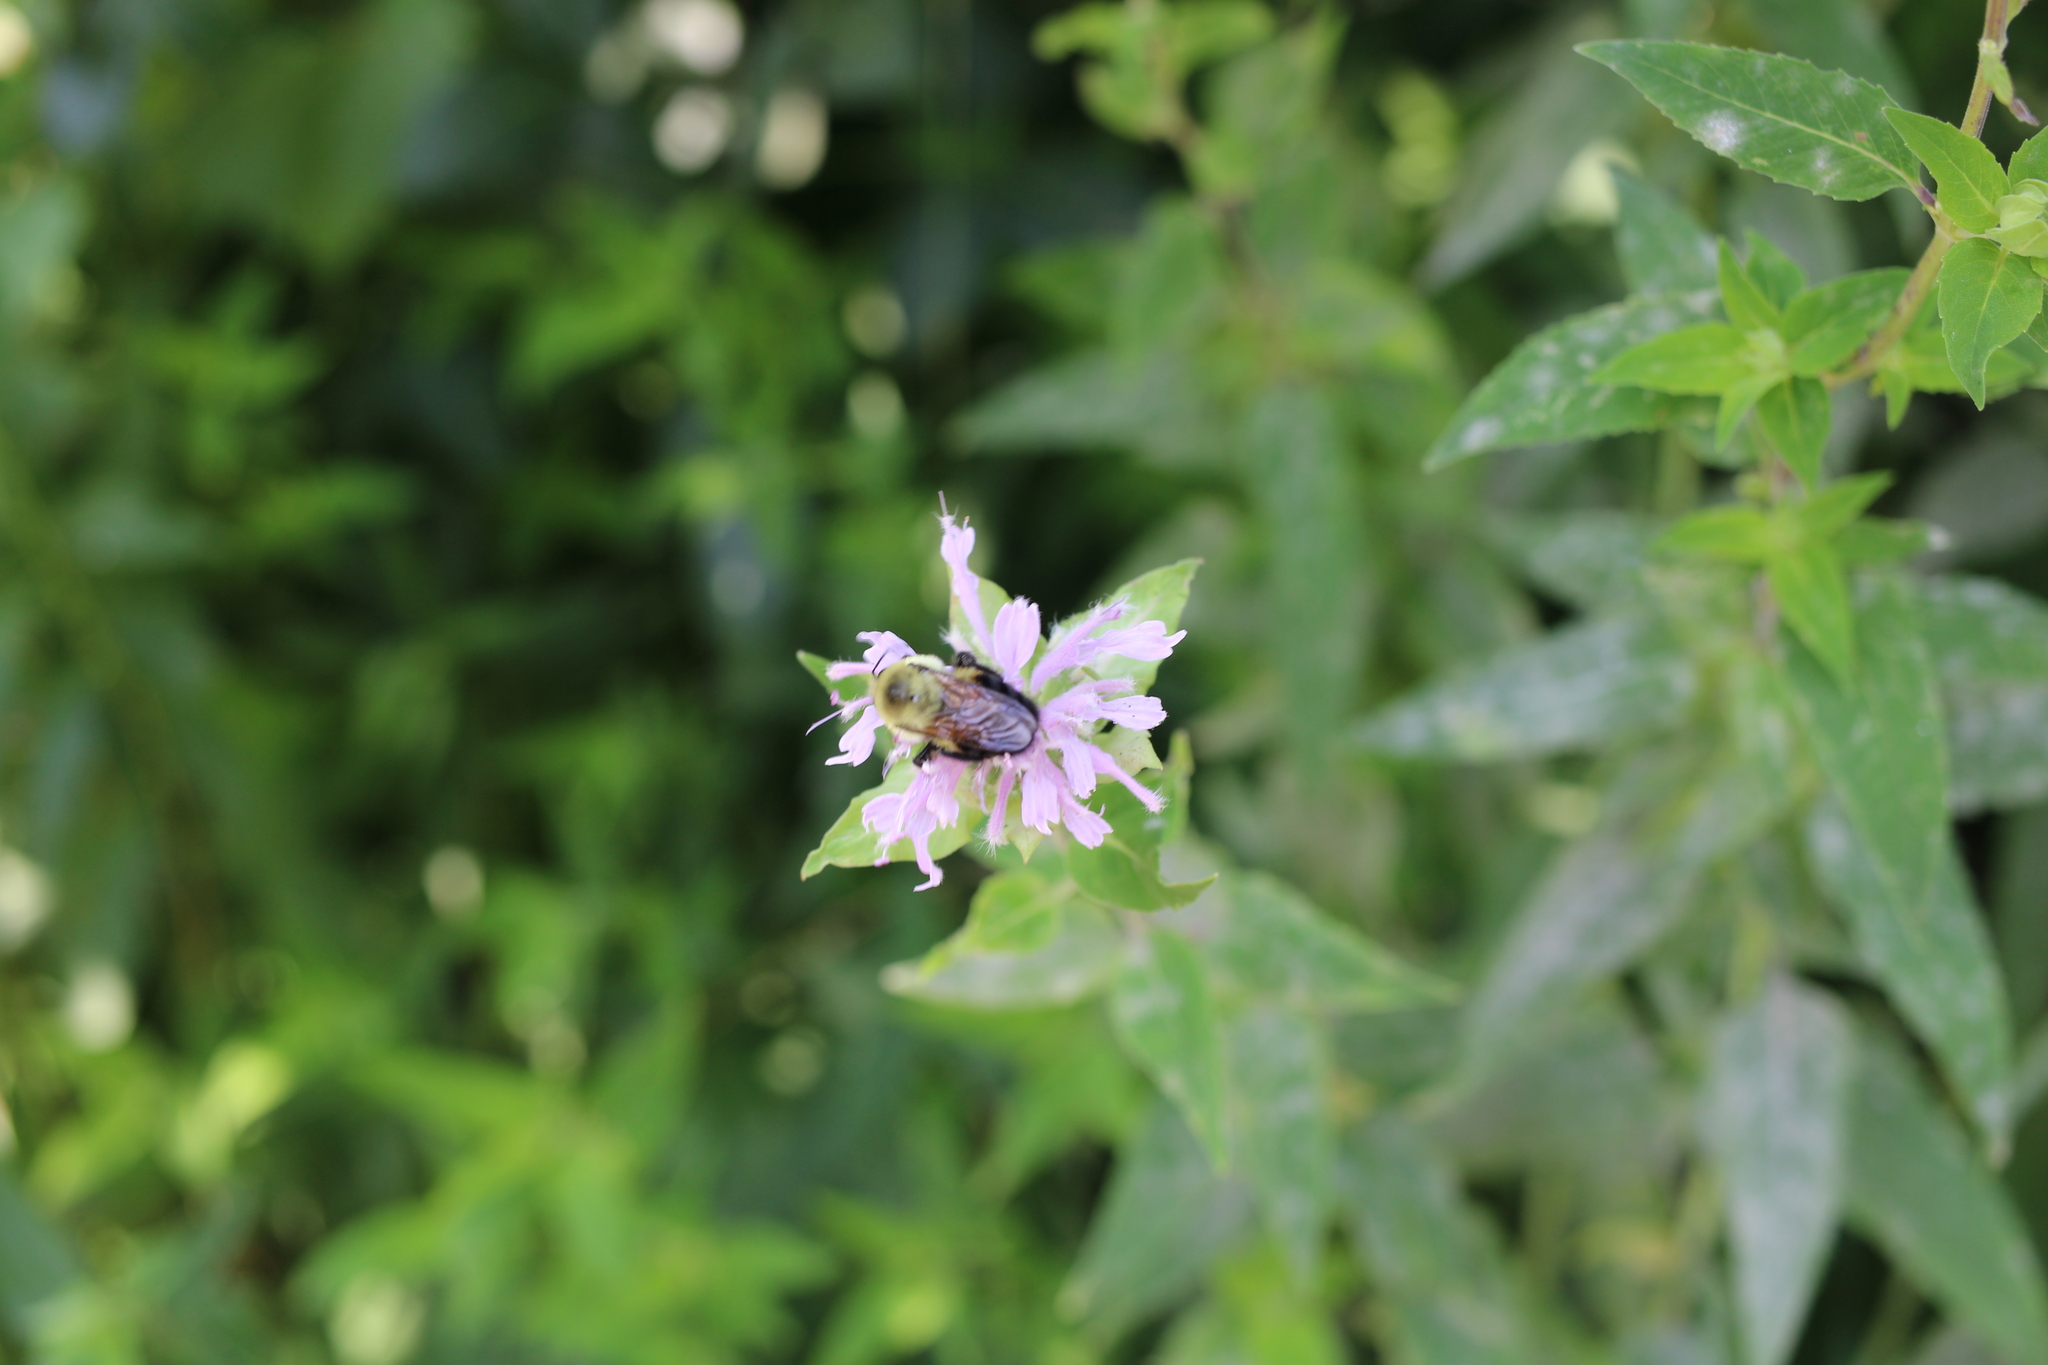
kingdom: Animalia
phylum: Arthropoda
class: Insecta
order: Hymenoptera
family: Apidae
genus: Bombus
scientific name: Bombus griseocollis
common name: Brown-belted bumble bee
